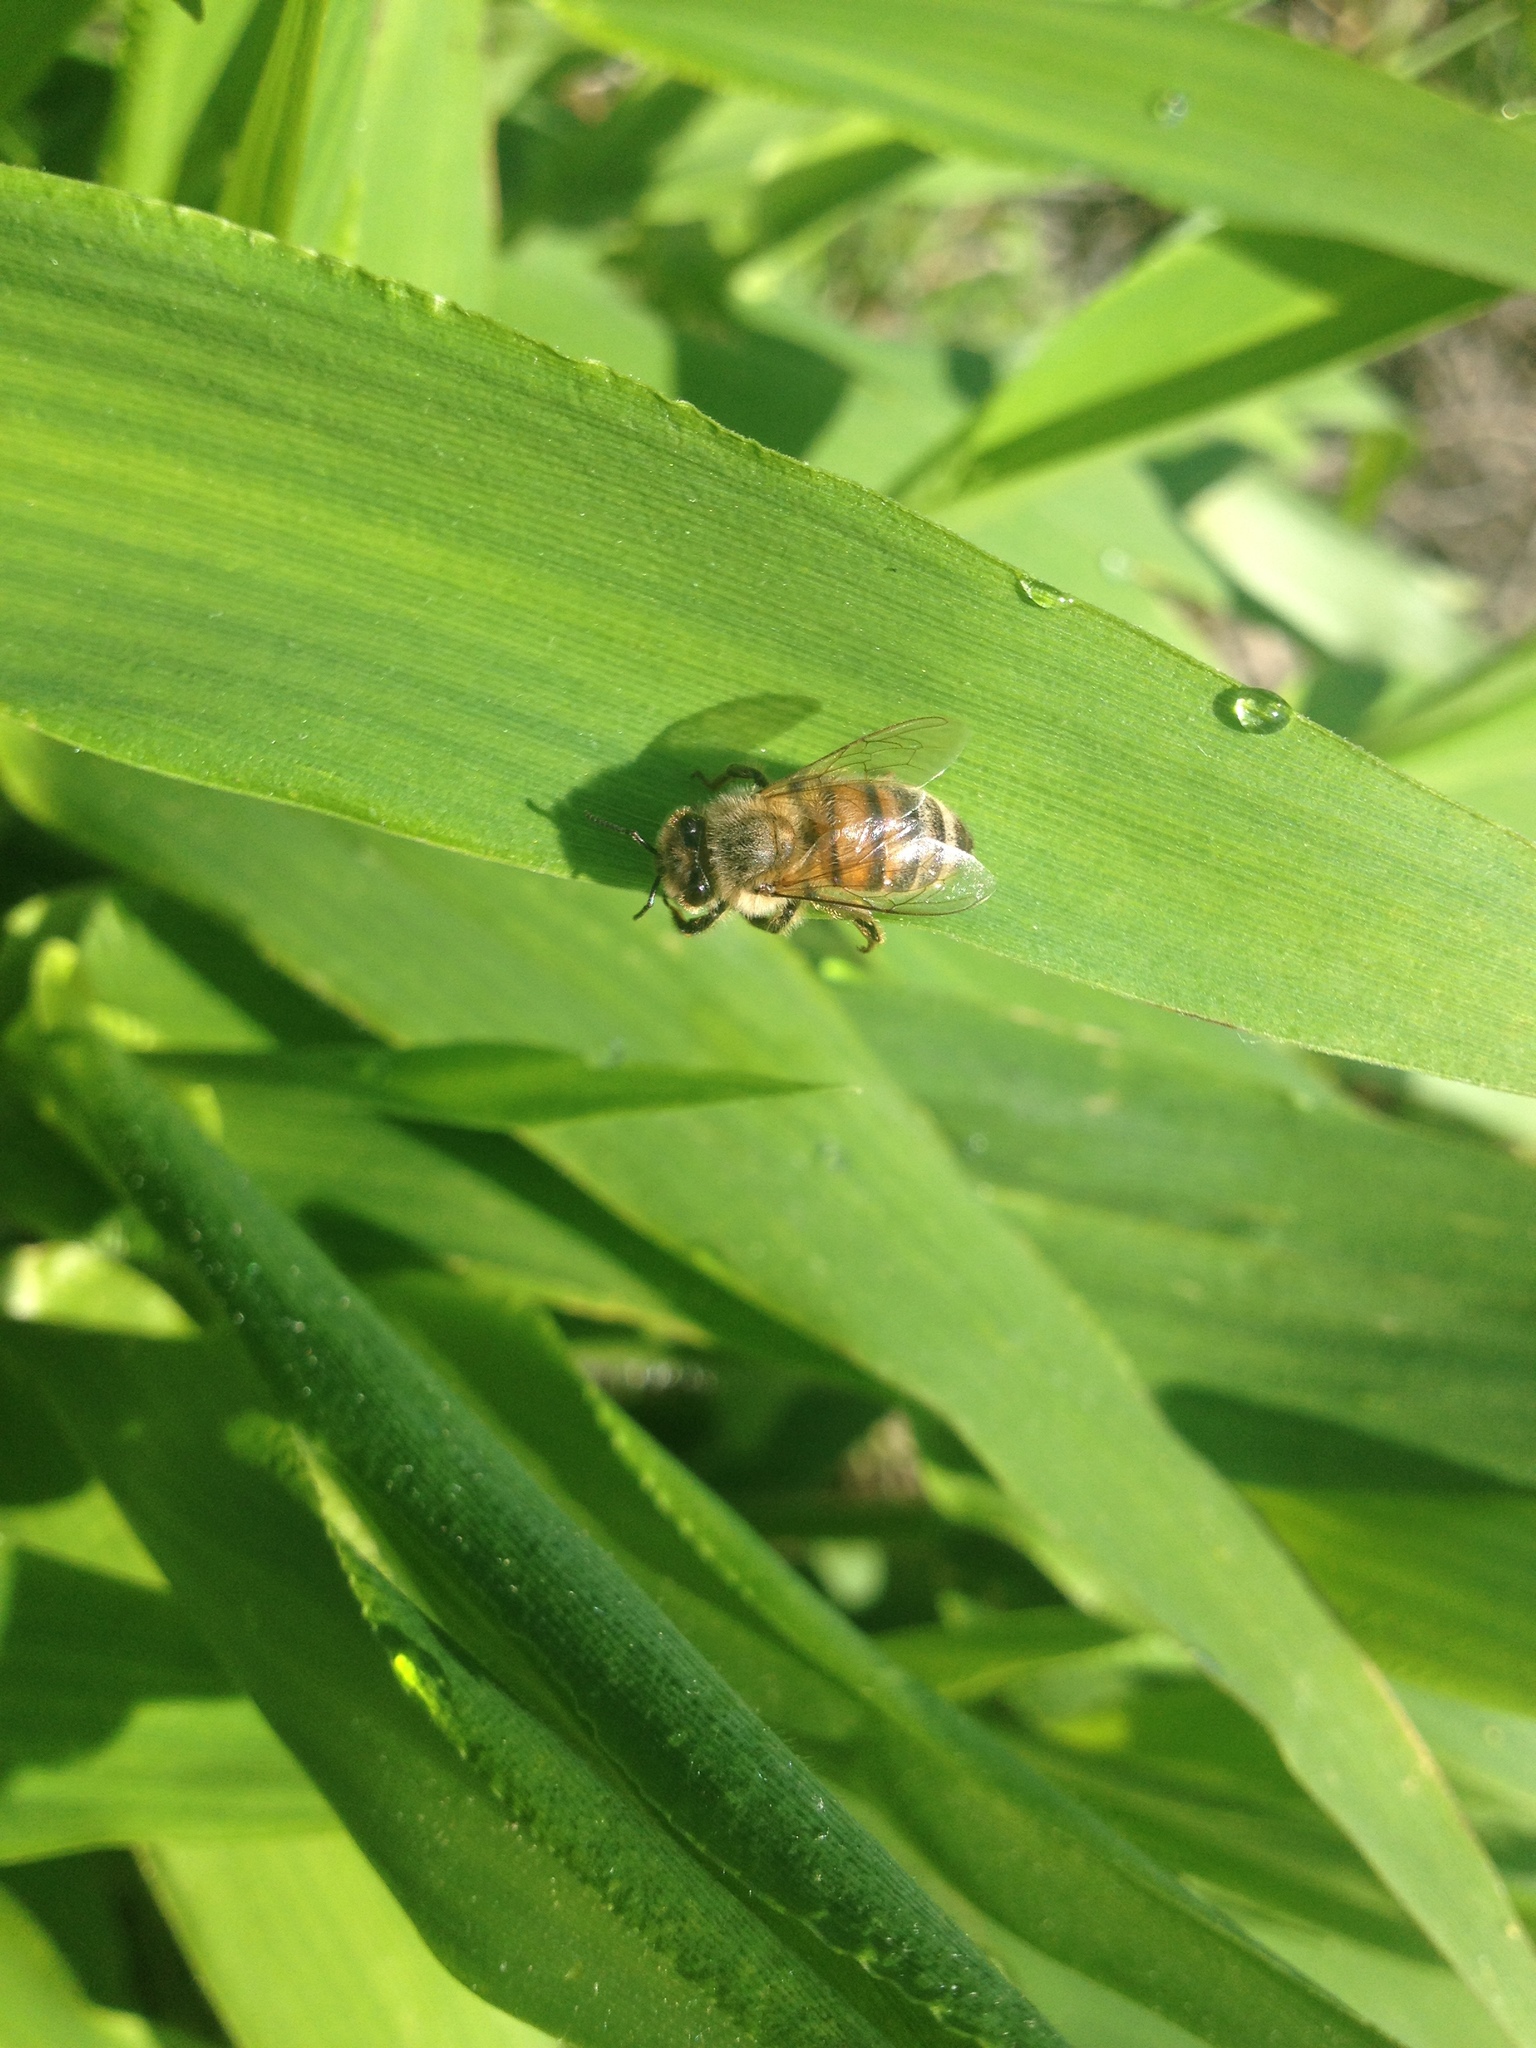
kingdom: Animalia
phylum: Arthropoda
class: Insecta
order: Hymenoptera
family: Apidae
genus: Apis
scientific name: Apis mellifera
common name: Honey bee
